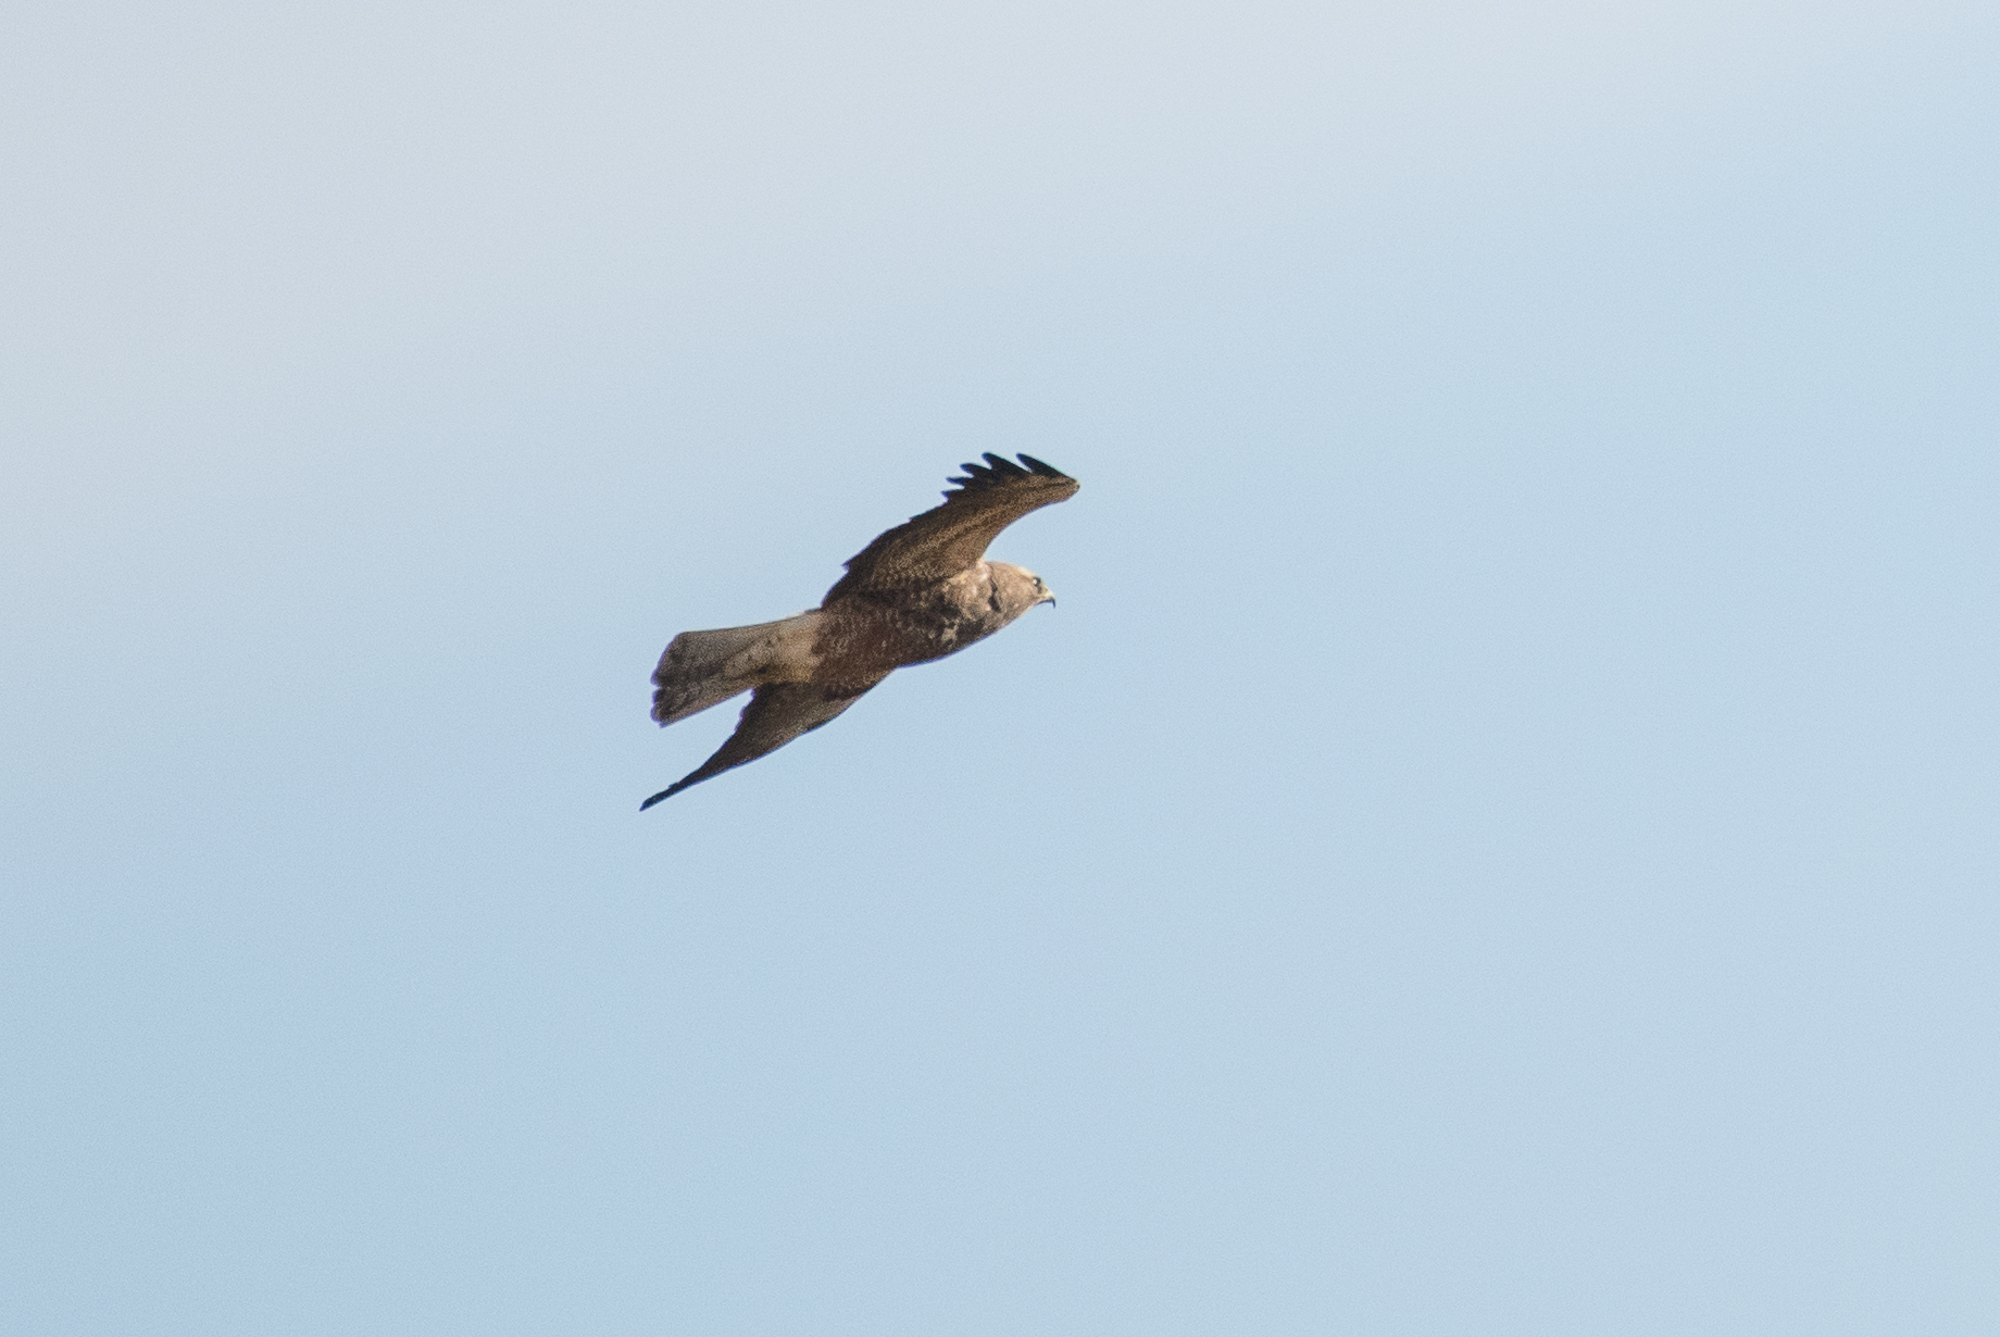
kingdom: Animalia
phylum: Chordata
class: Aves
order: Accipitriformes
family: Accipitridae
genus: Buteo
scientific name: Buteo swainsoni
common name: Swainson's hawk
